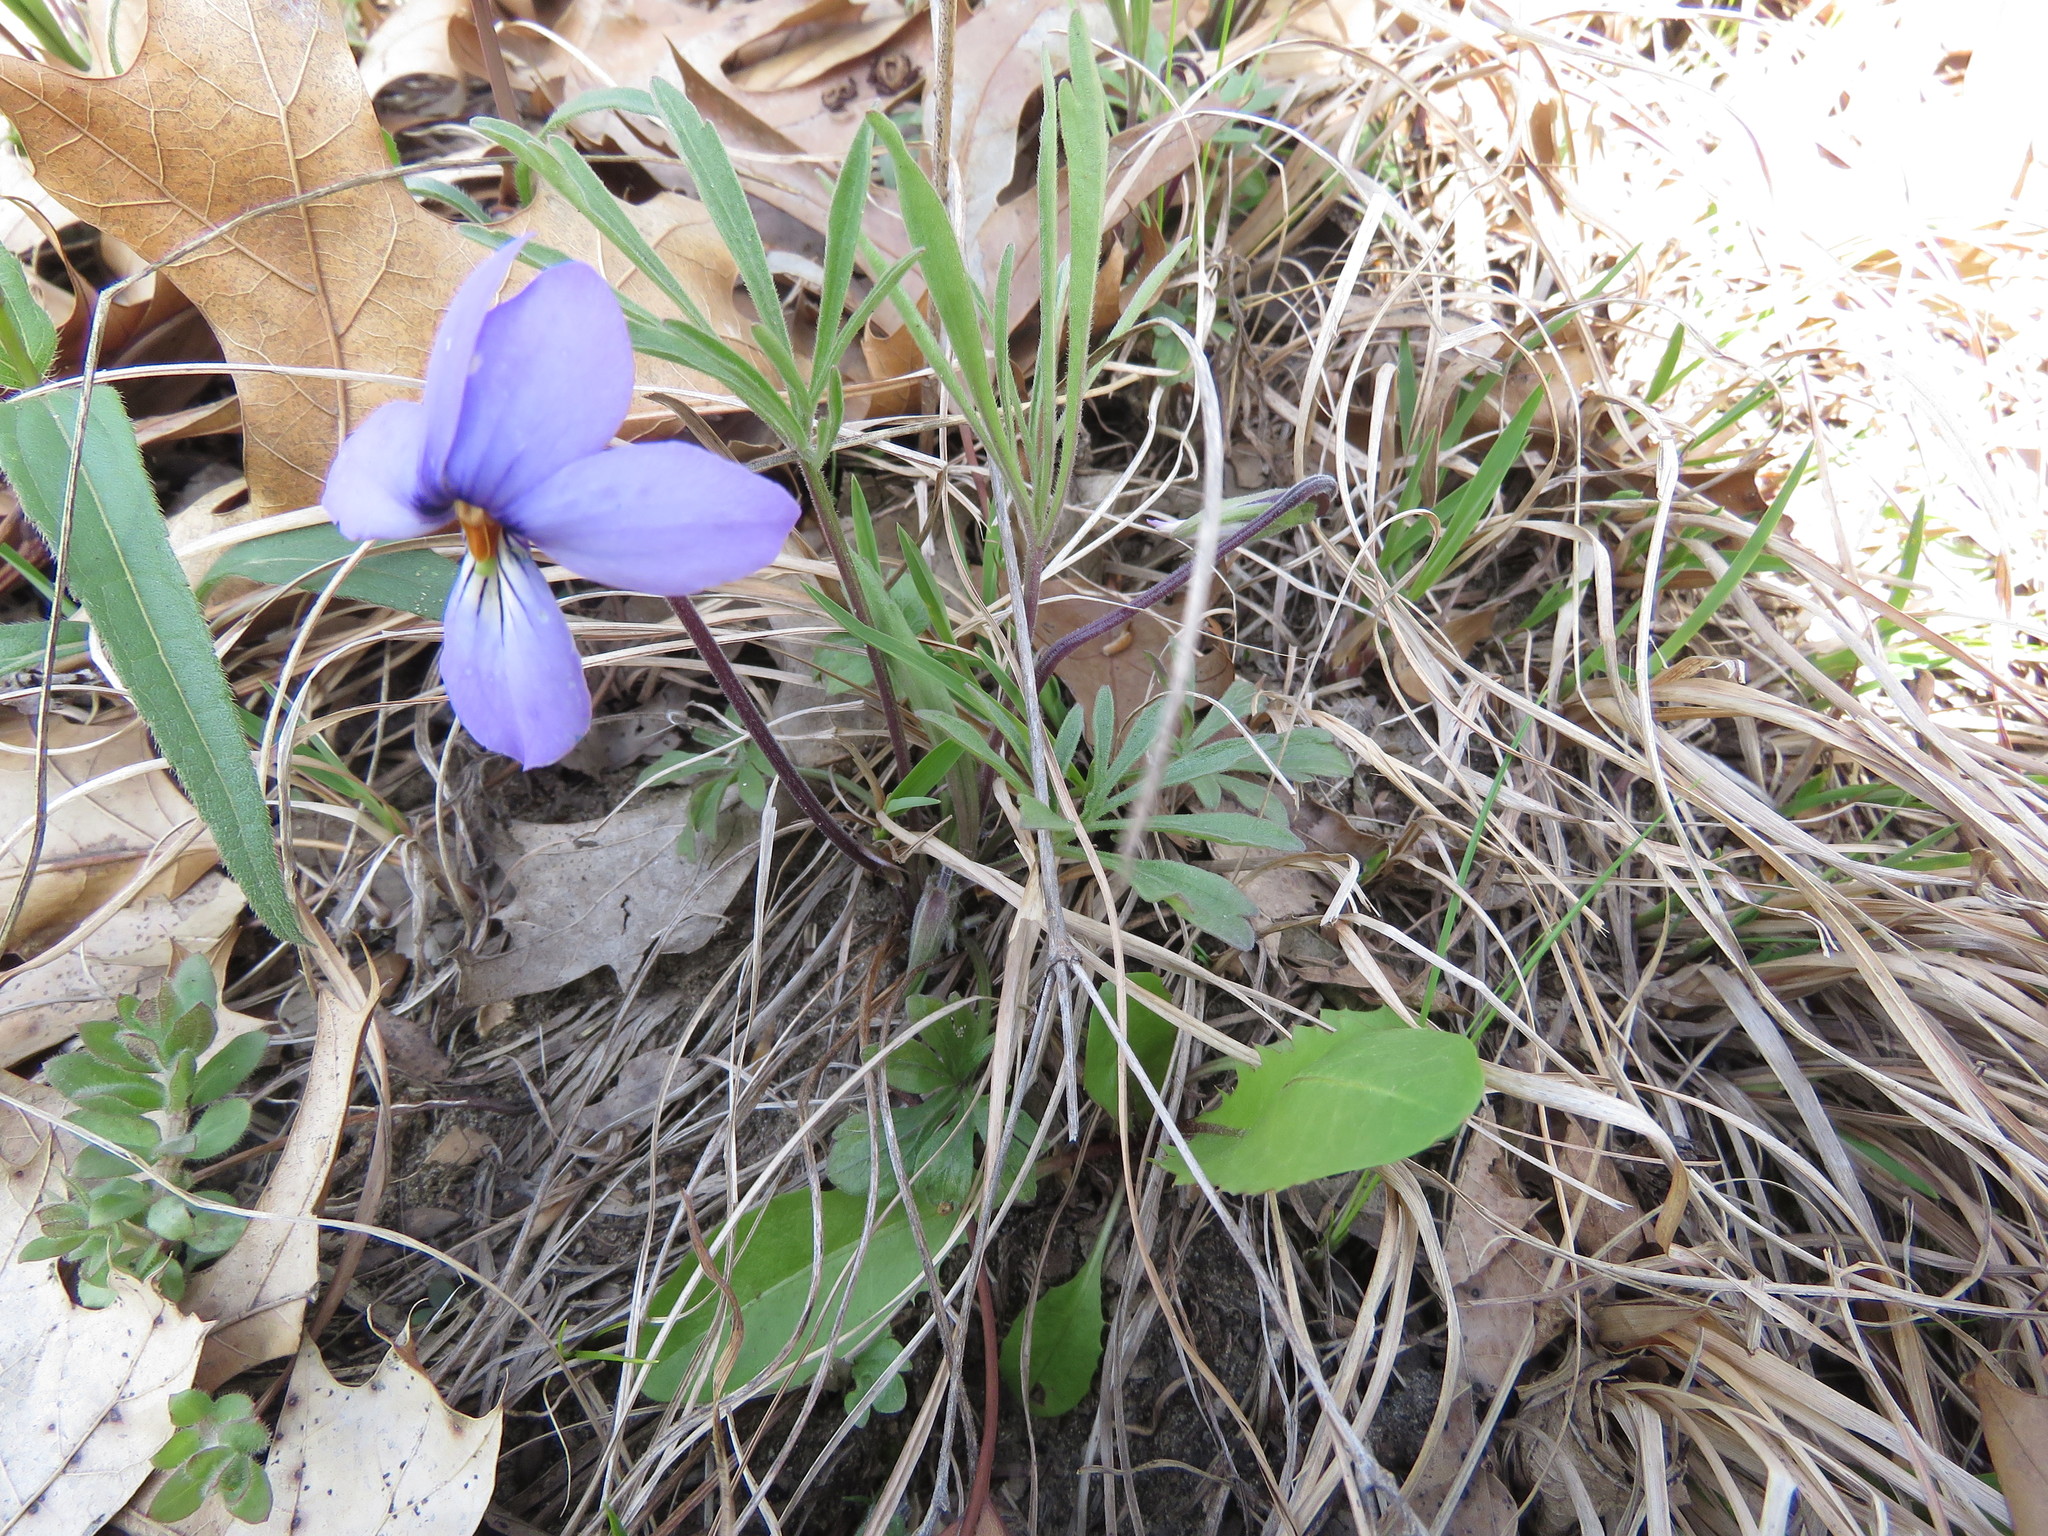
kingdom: Plantae
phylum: Tracheophyta
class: Magnoliopsida
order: Malpighiales
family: Violaceae
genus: Viola
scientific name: Viola pedata
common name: Pansy violet
